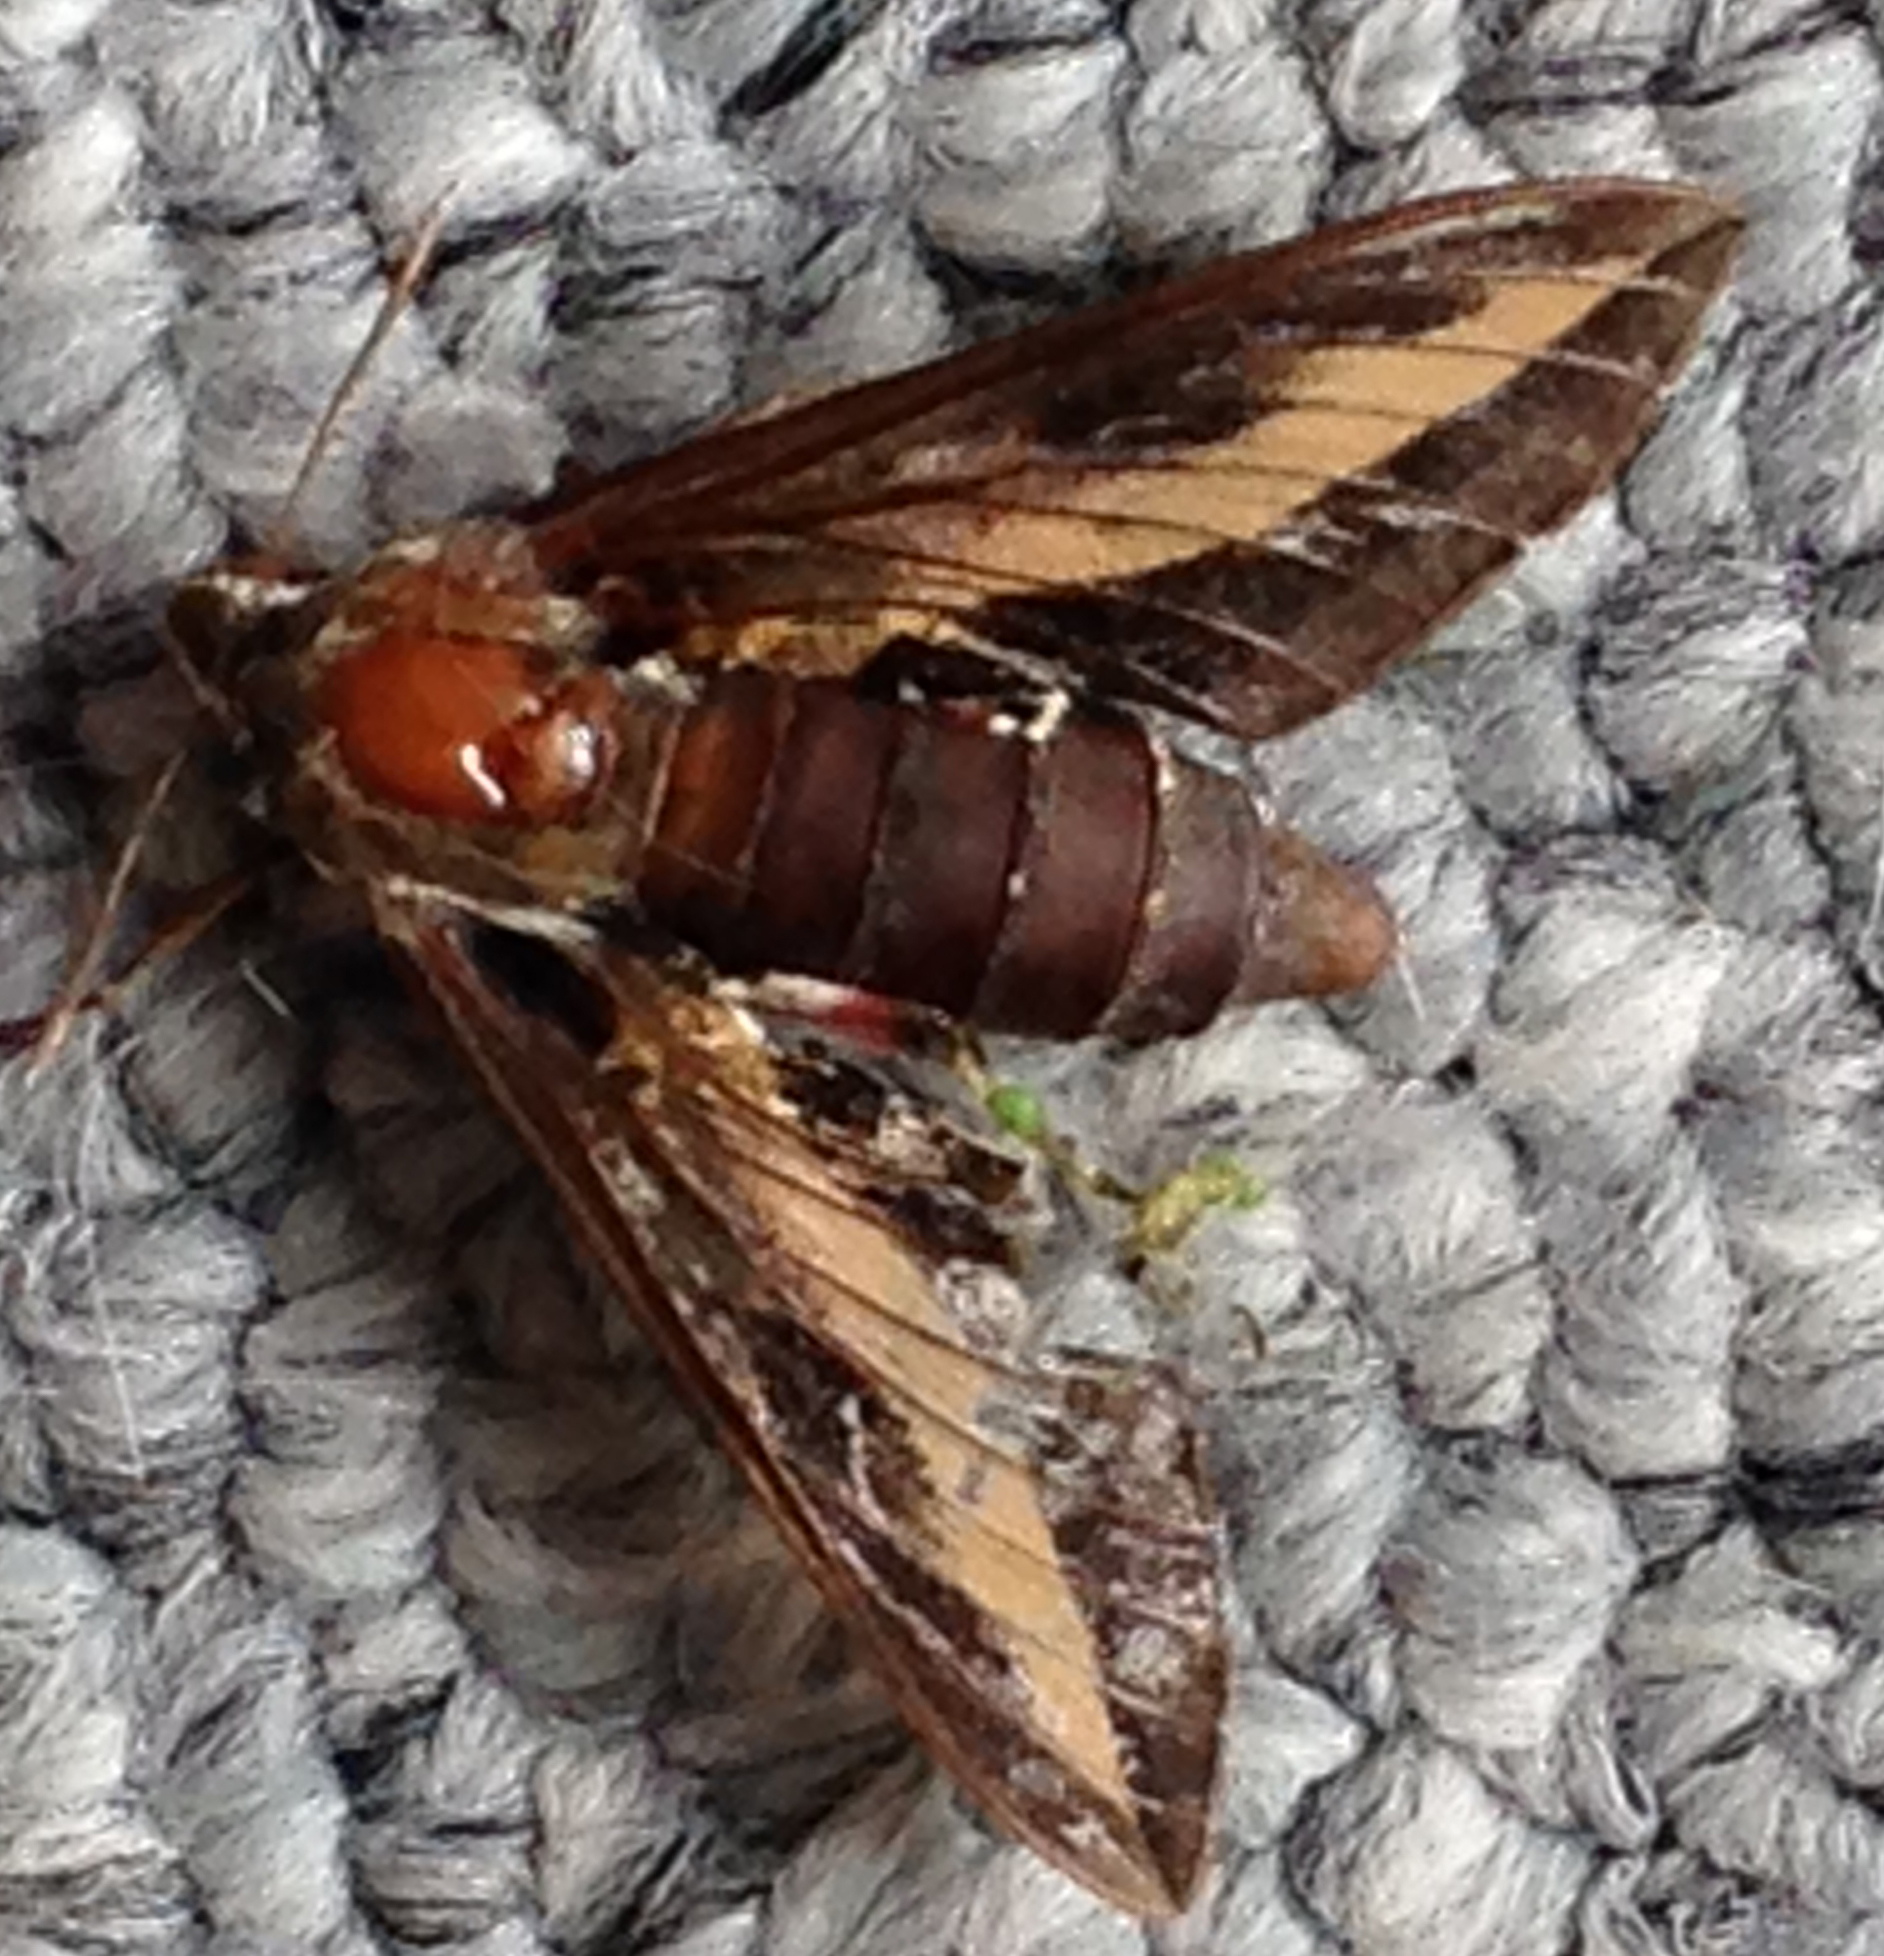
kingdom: Animalia
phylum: Arthropoda
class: Insecta
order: Lepidoptera
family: Sphingidae
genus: Hyles
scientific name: Hyles gallii
